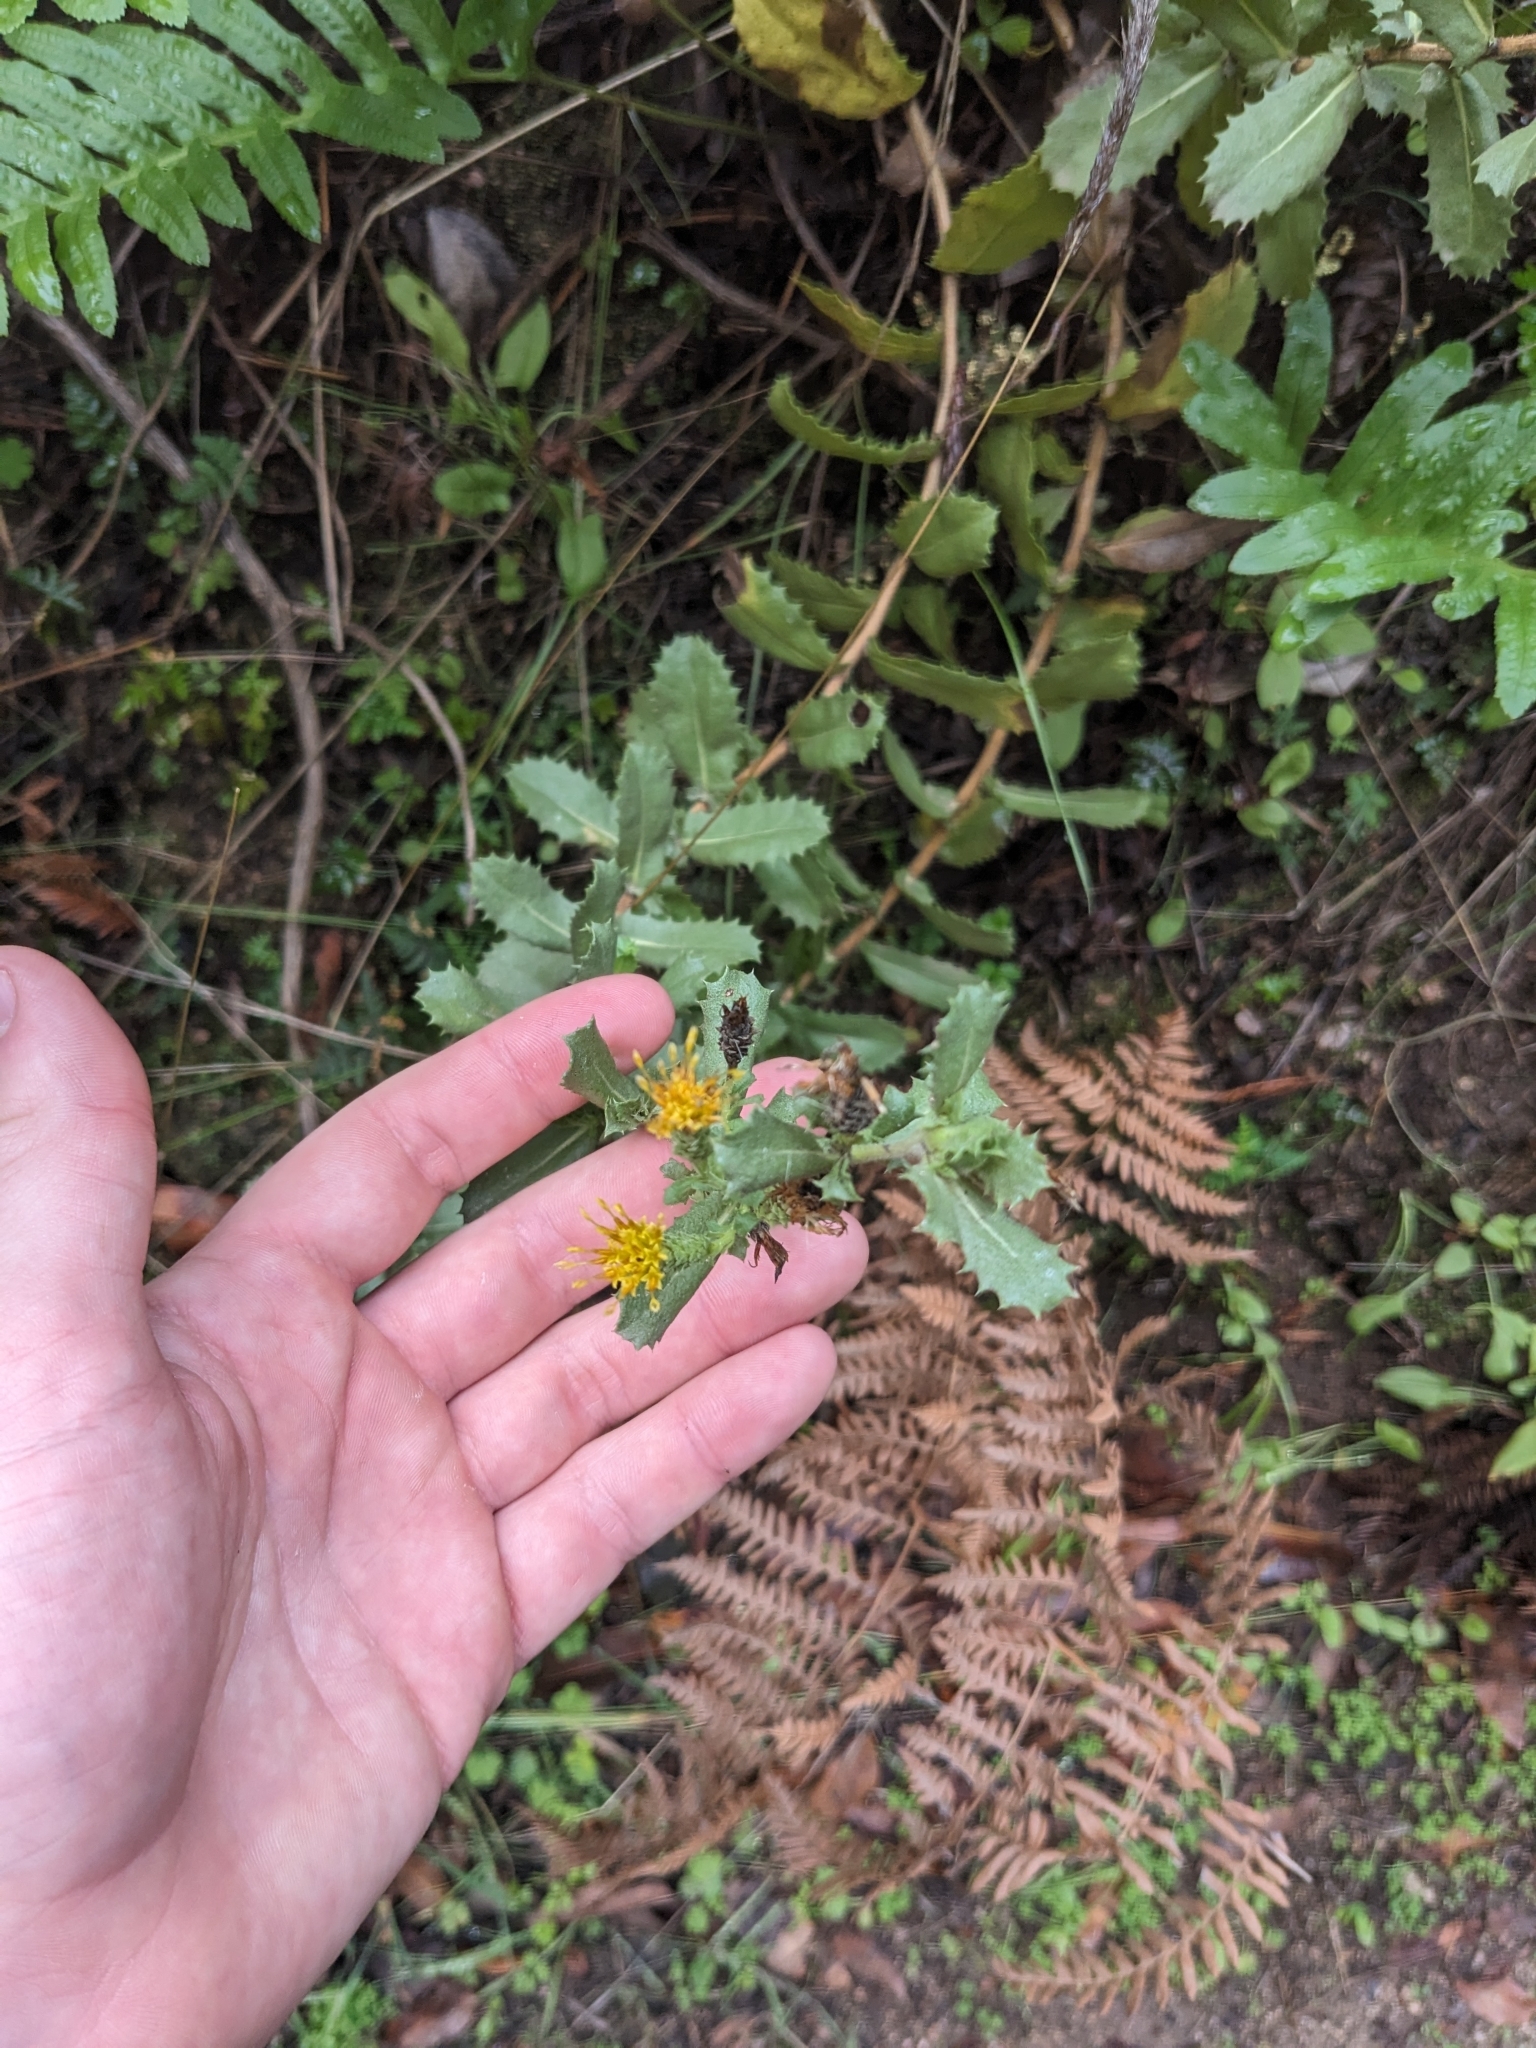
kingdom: Plantae
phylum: Tracheophyta
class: Magnoliopsida
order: Asterales
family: Asteraceae
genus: Hazardia
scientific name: Hazardia squarrosa
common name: Saw-tooth goldenbush
